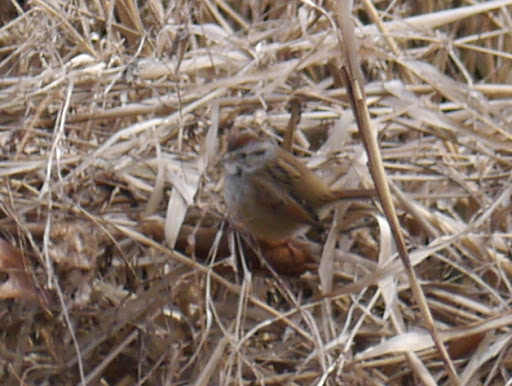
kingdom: Animalia
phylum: Chordata
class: Aves
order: Passeriformes
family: Passerellidae
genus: Melospiza
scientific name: Melospiza georgiana
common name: Swamp sparrow
